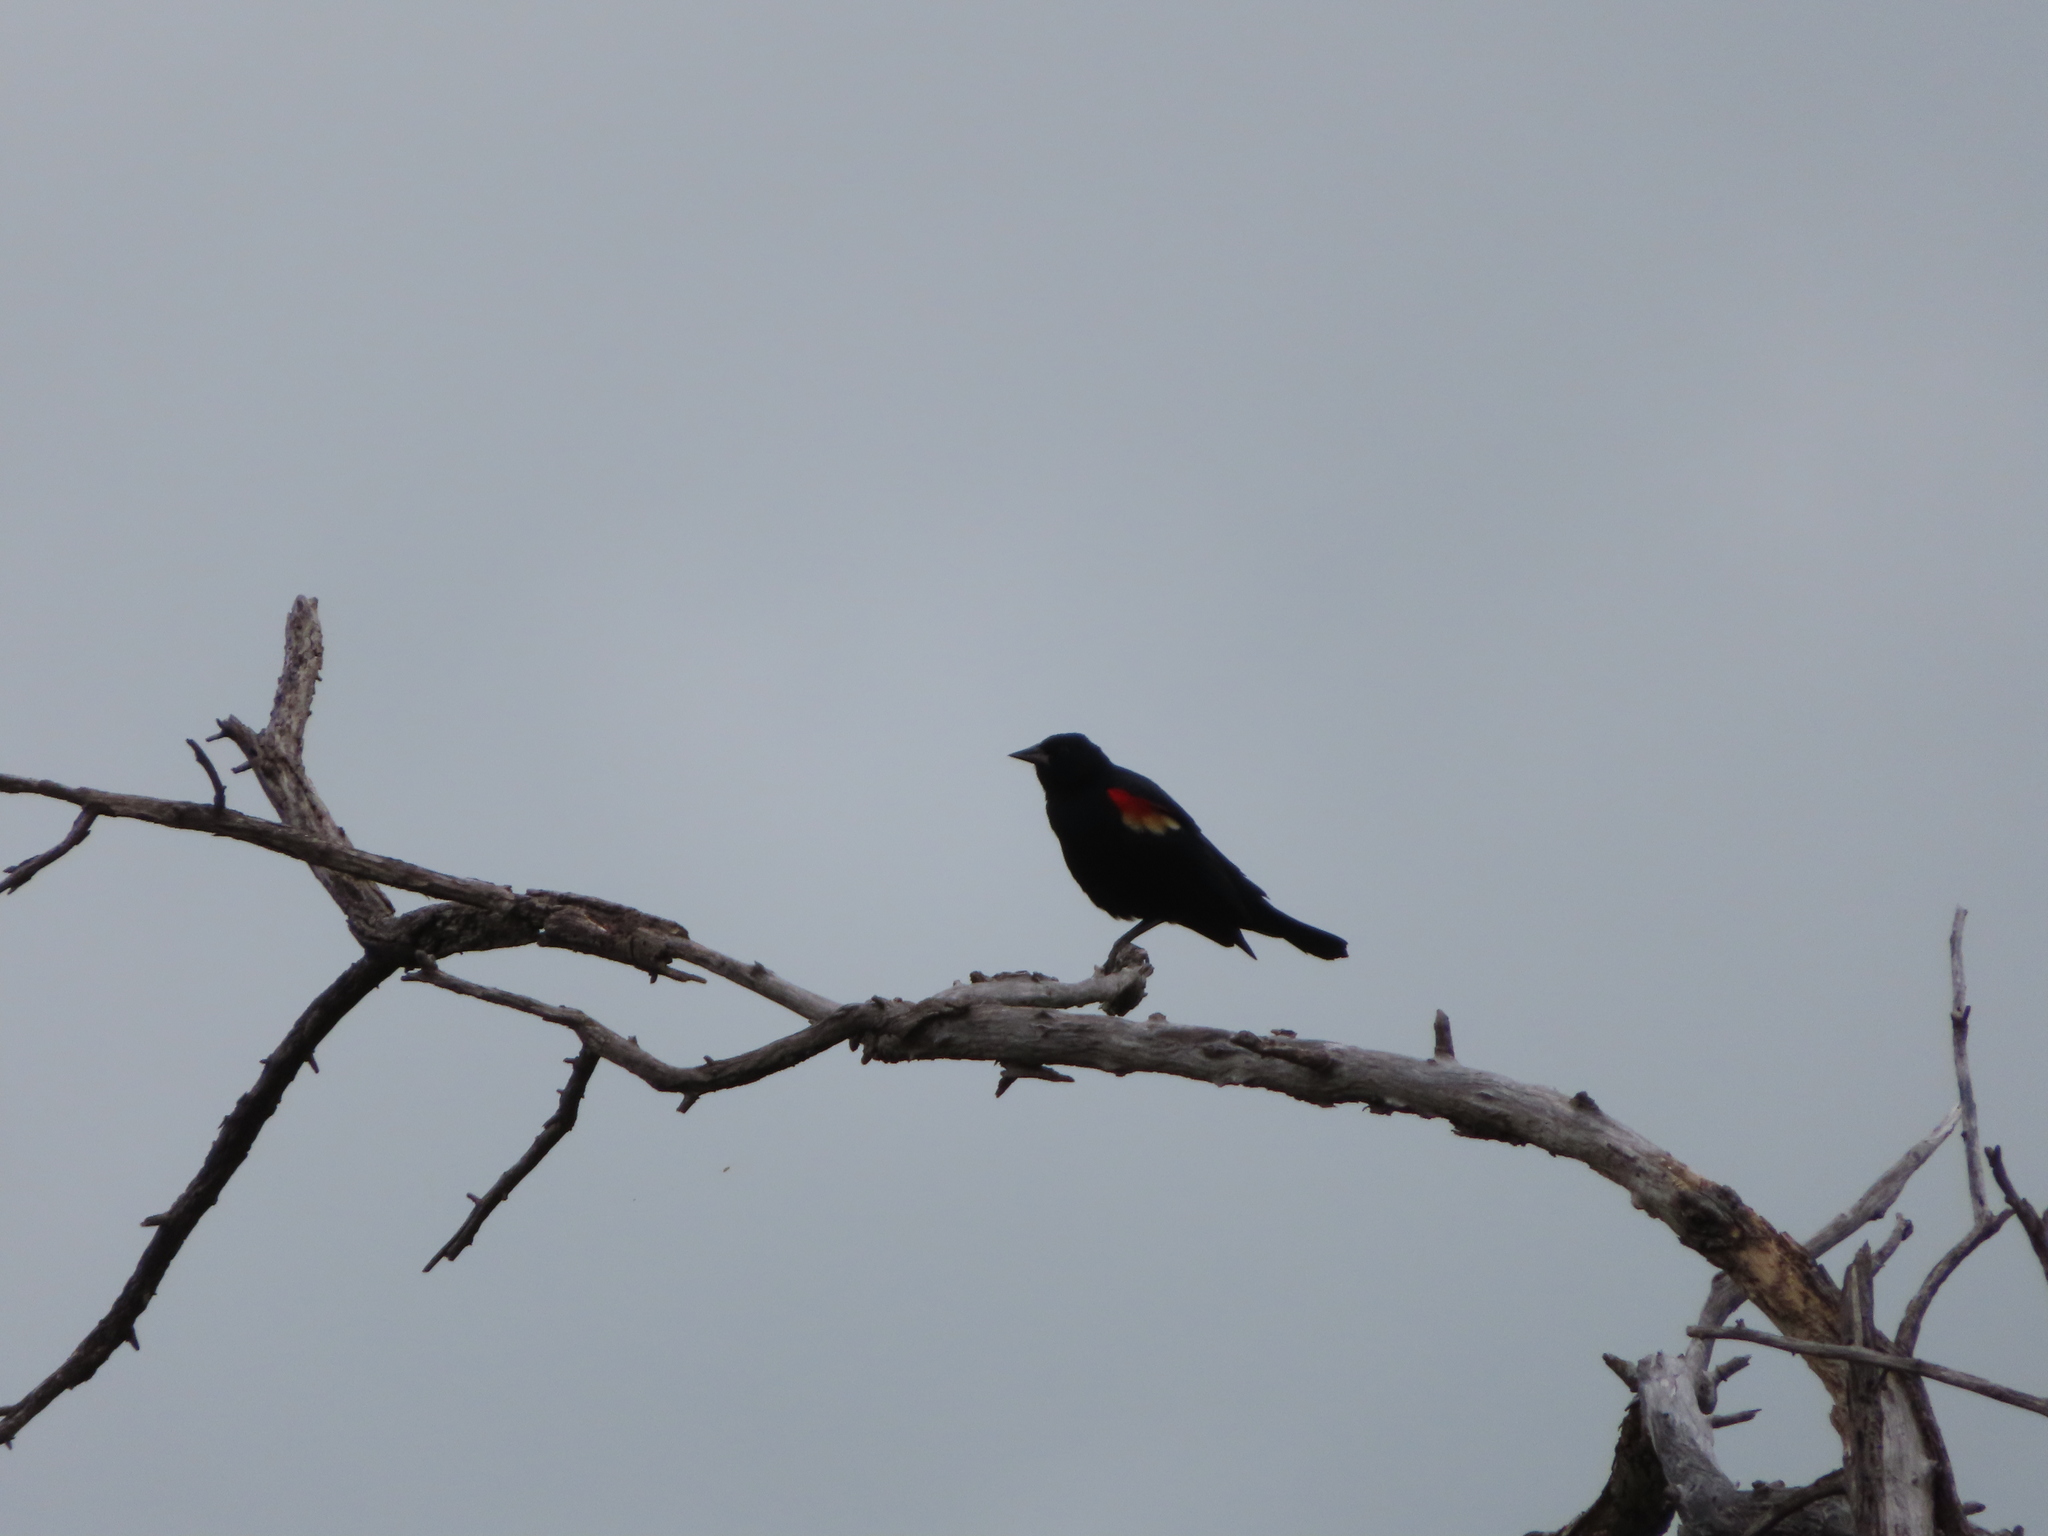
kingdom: Animalia
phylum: Chordata
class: Aves
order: Passeriformes
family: Icteridae
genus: Agelaius
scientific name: Agelaius phoeniceus
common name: Red-winged blackbird
